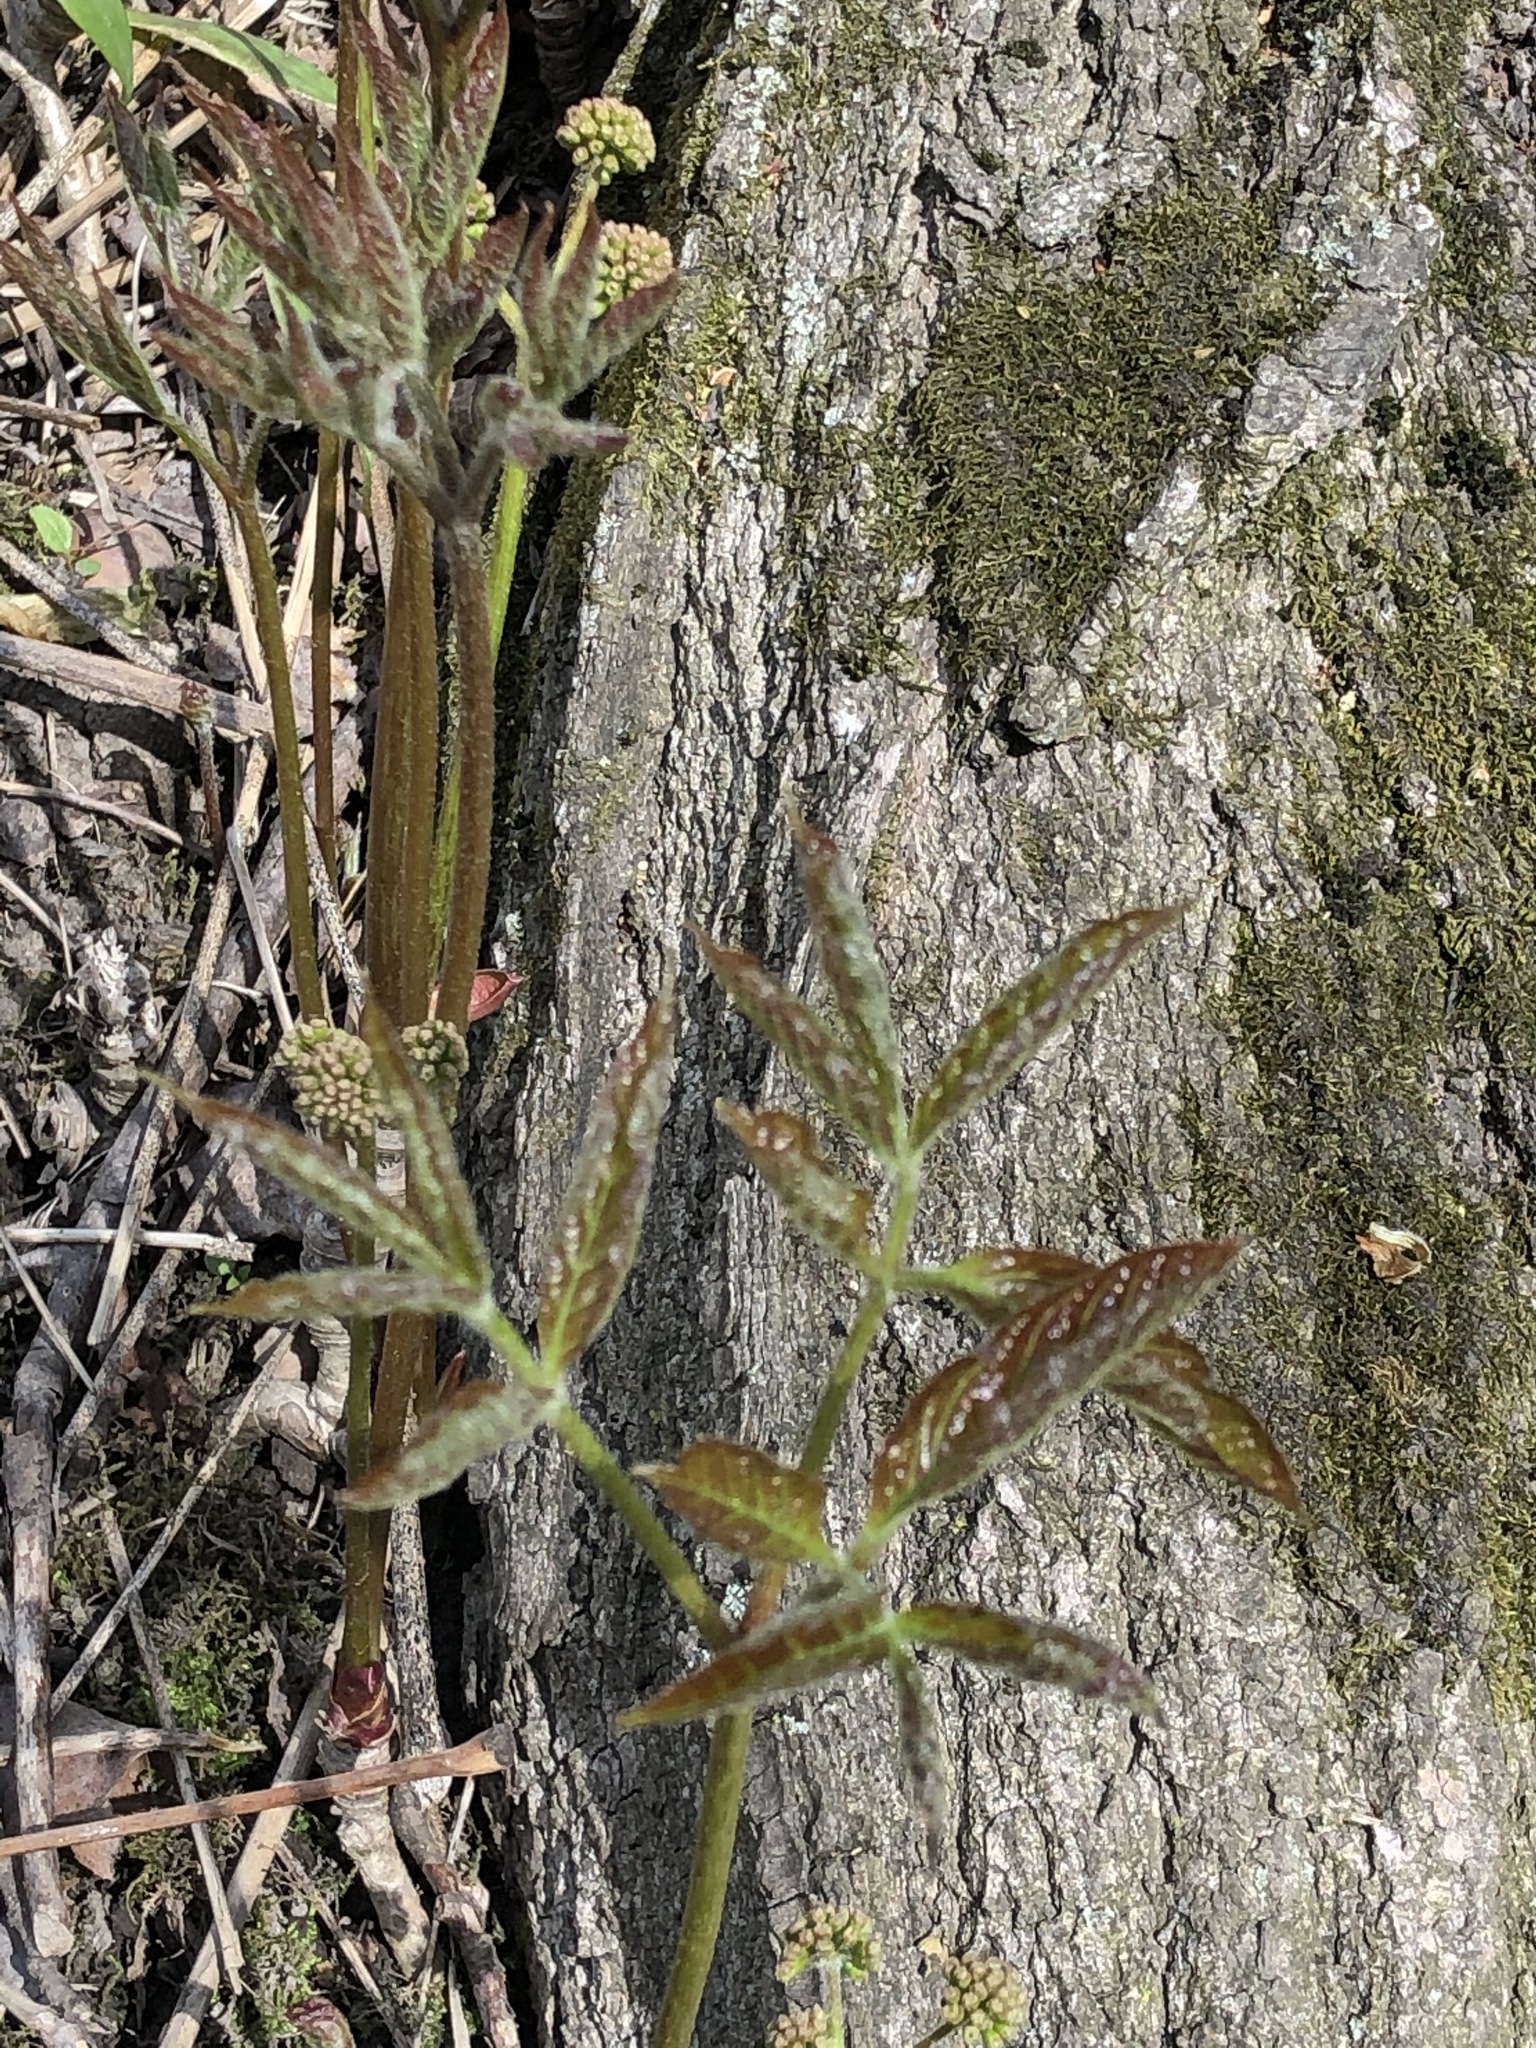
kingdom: Plantae
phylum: Tracheophyta
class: Magnoliopsida
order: Apiales
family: Araliaceae
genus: Aralia
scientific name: Aralia nudicaulis
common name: Wild sarsaparilla
